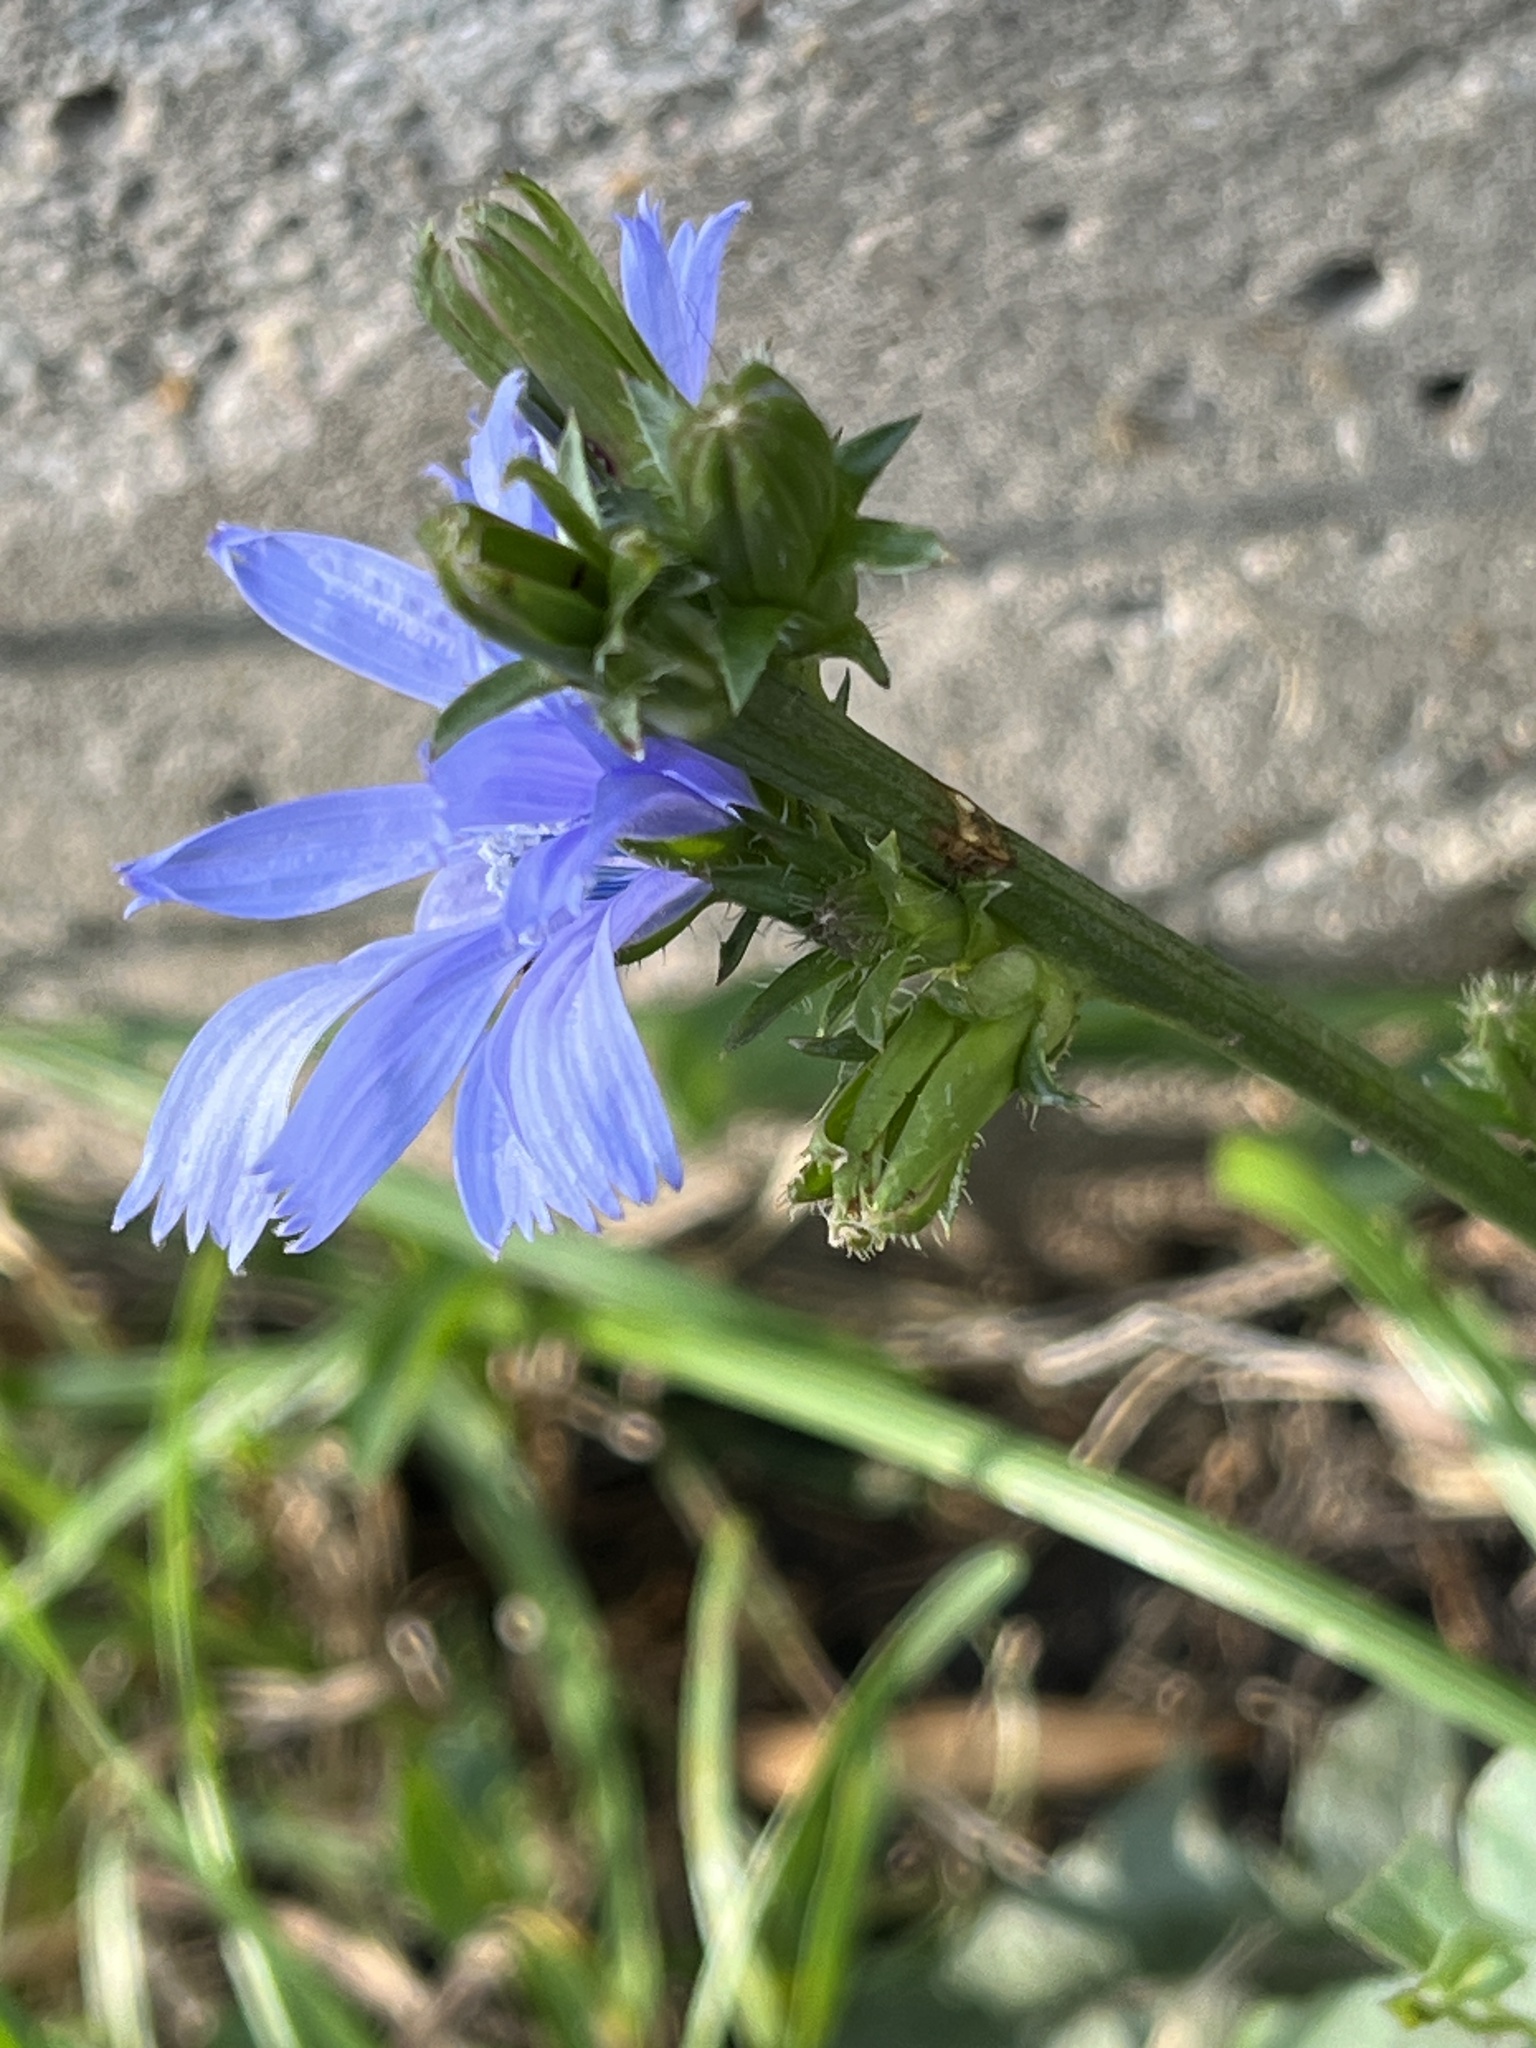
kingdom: Plantae
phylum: Tracheophyta
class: Magnoliopsida
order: Asterales
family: Asteraceae
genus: Cichorium
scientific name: Cichorium intybus
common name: Chicory
